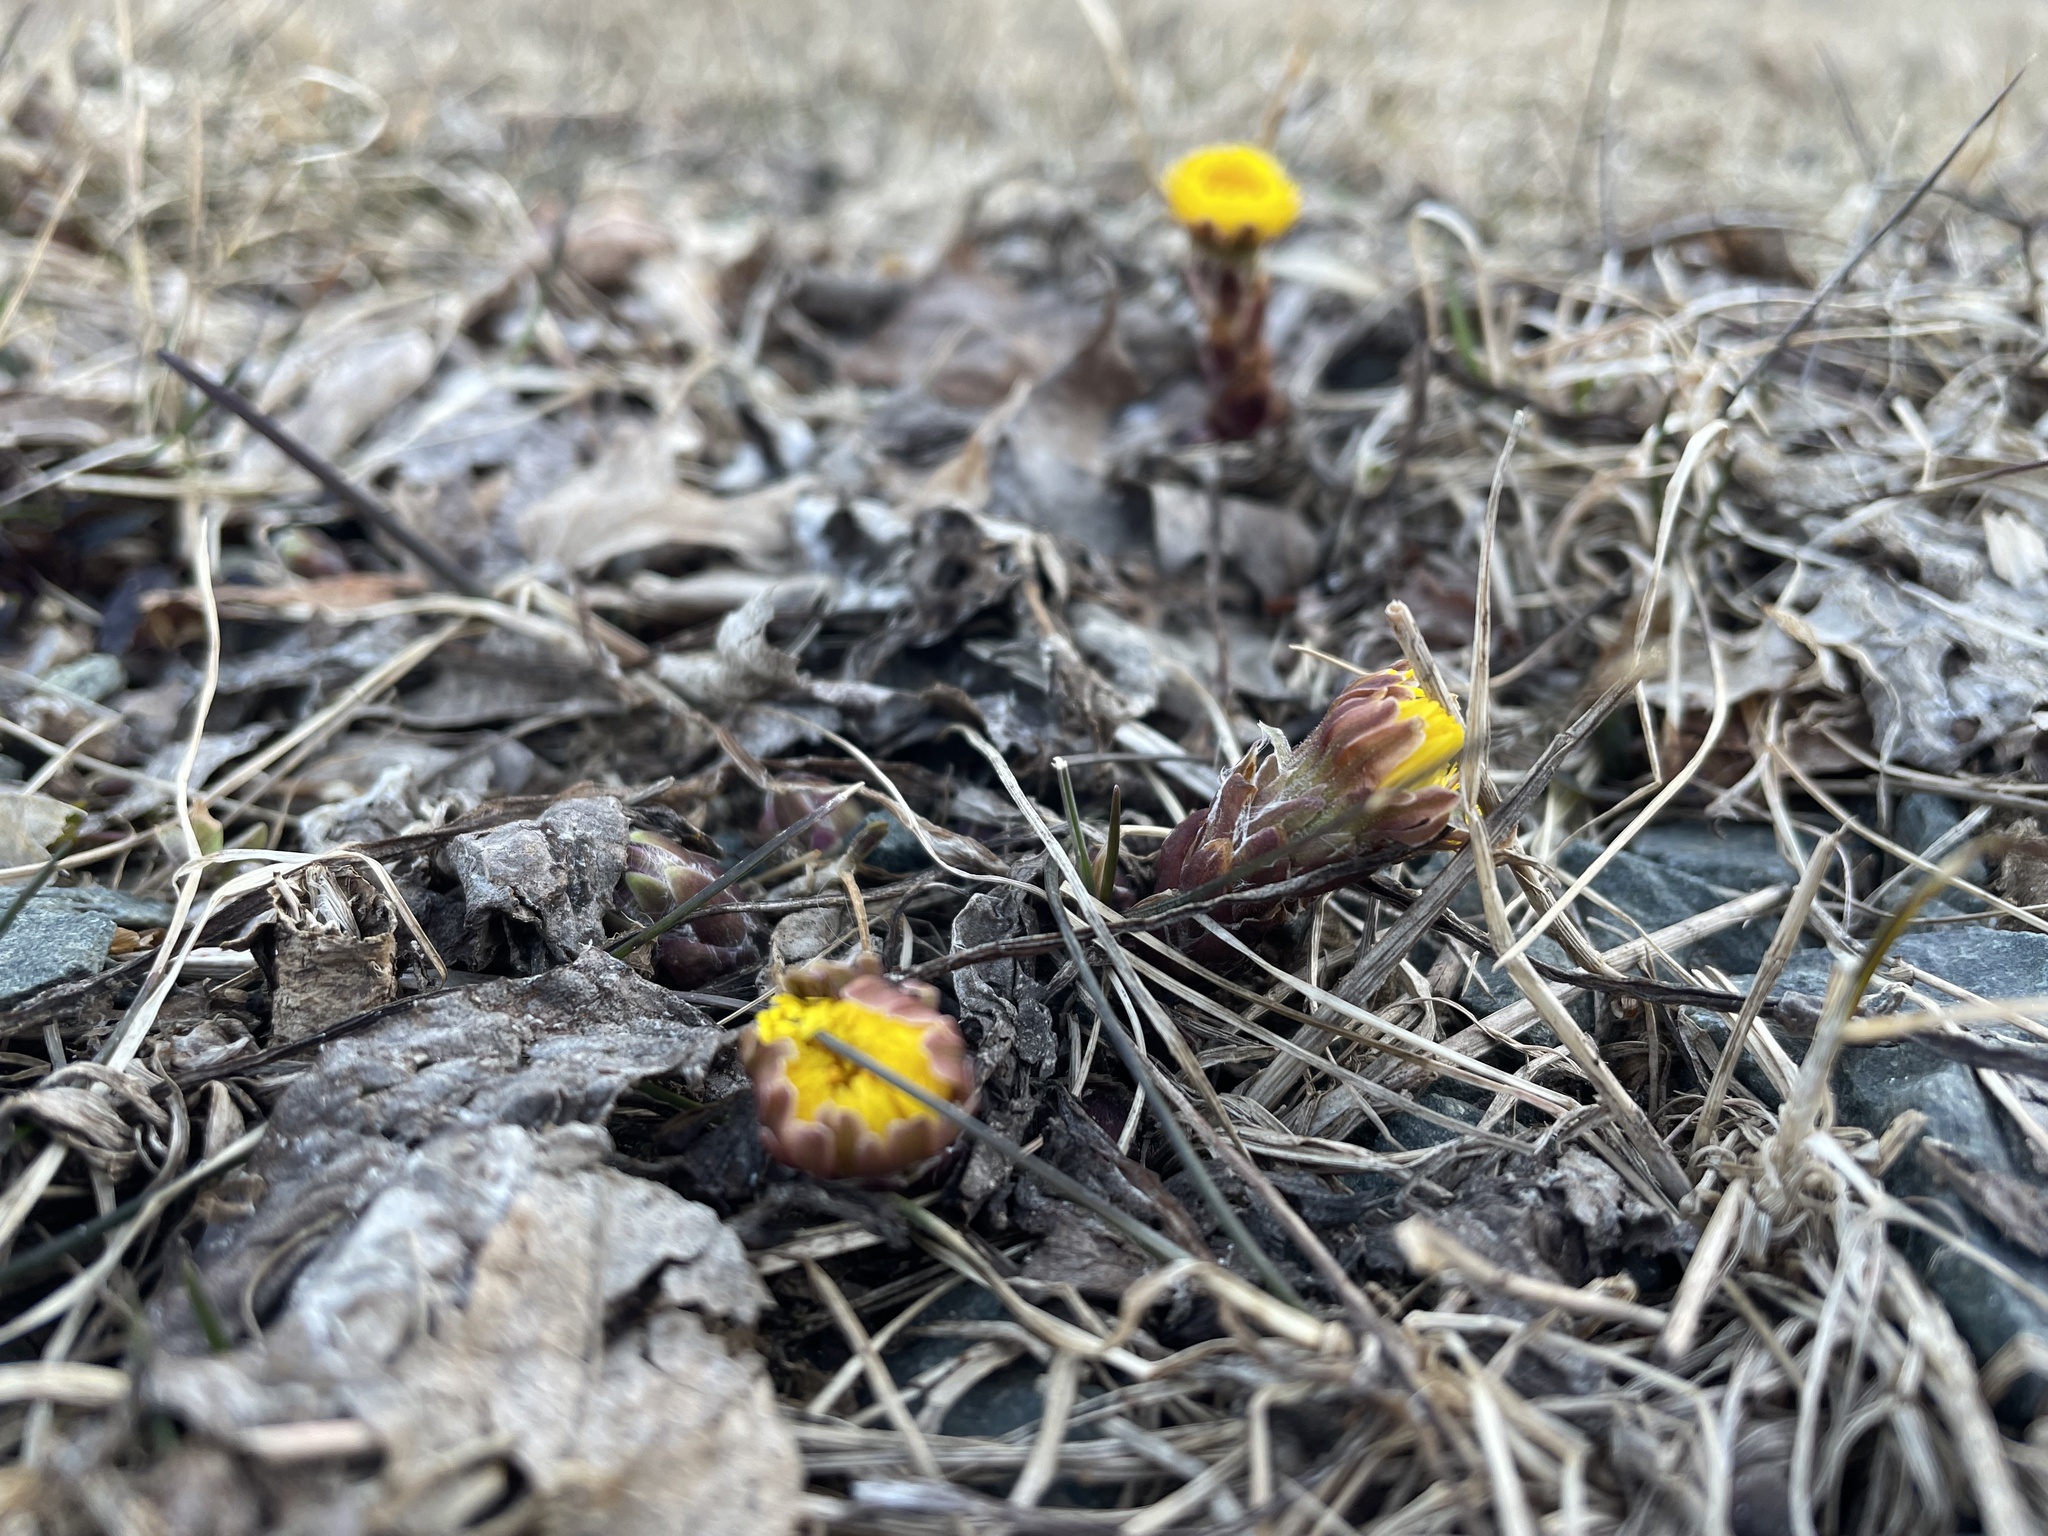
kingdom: Plantae
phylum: Tracheophyta
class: Magnoliopsida
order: Asterales
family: Asteraceae
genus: Tussilago
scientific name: Tussilago farfara
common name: Coltsfoot
